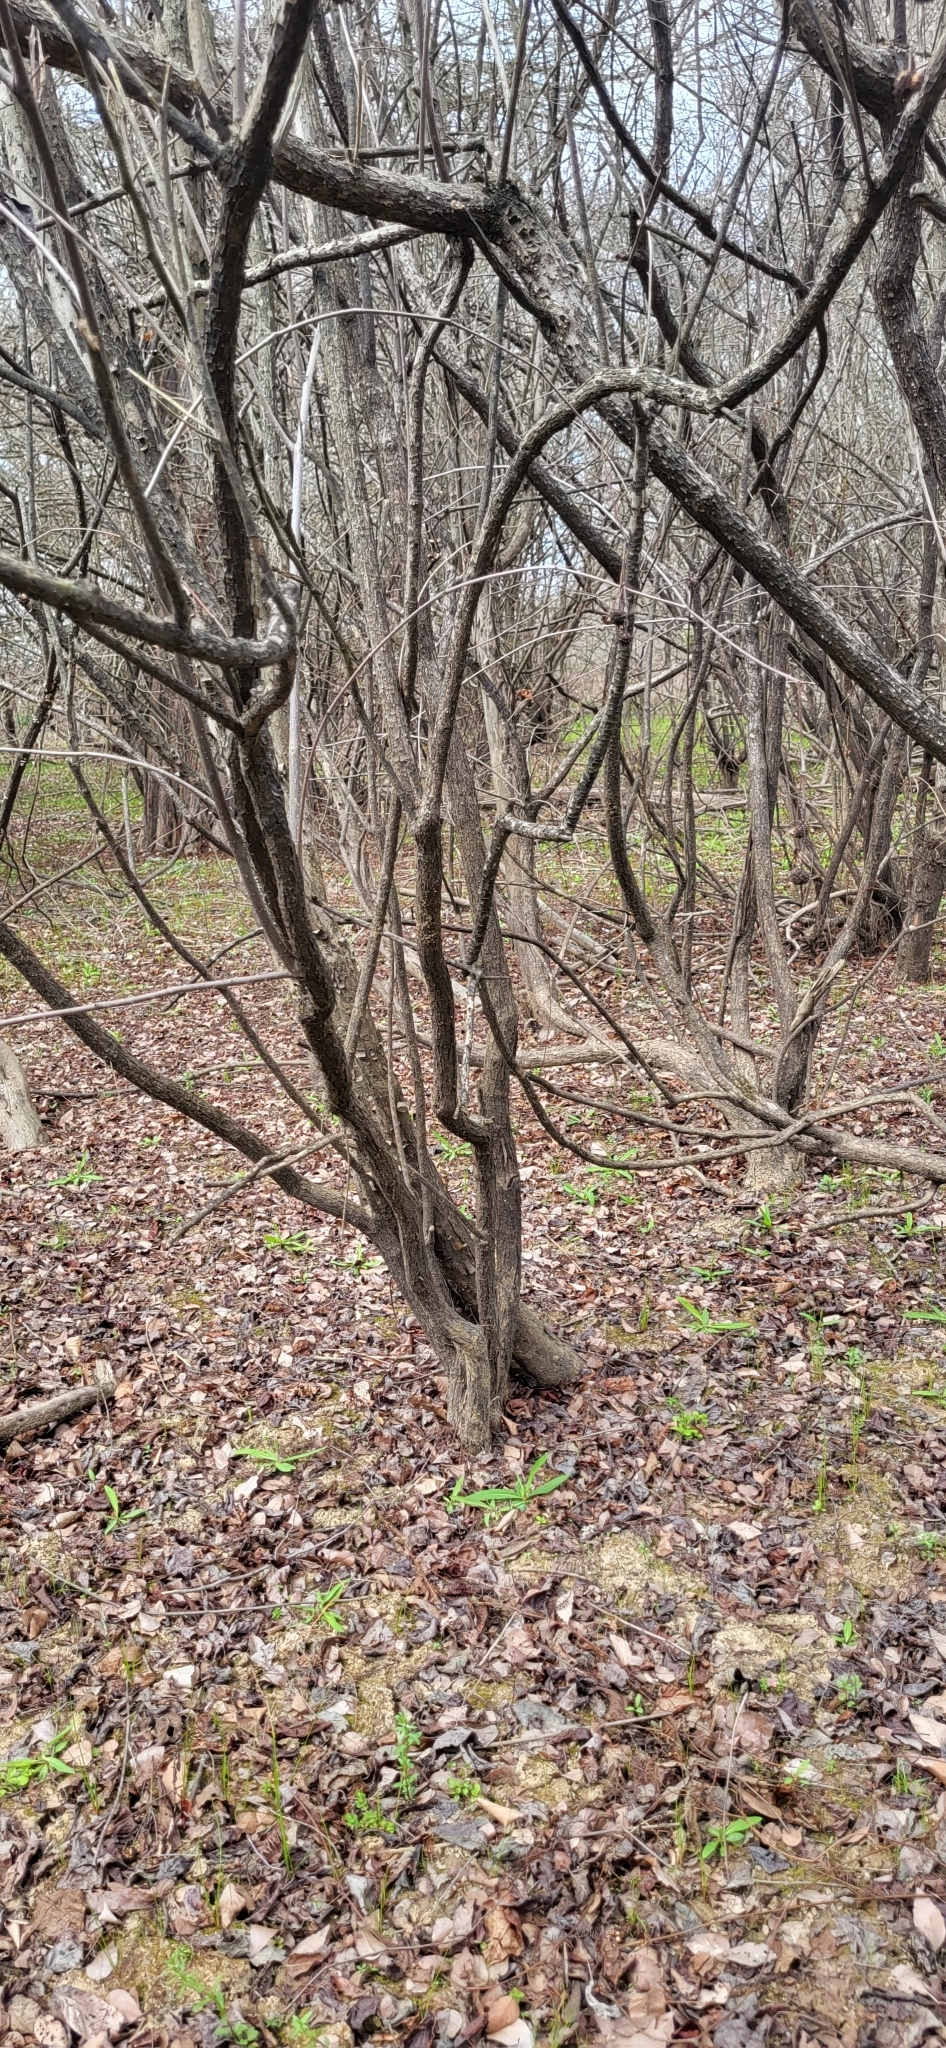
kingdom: Plantae
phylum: Tracheophyta
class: Magnoliopsida
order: Gentianales
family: Rubiaceae
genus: Cephalanthus
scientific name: Cephalanthus occidentalis
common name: Button-willow
